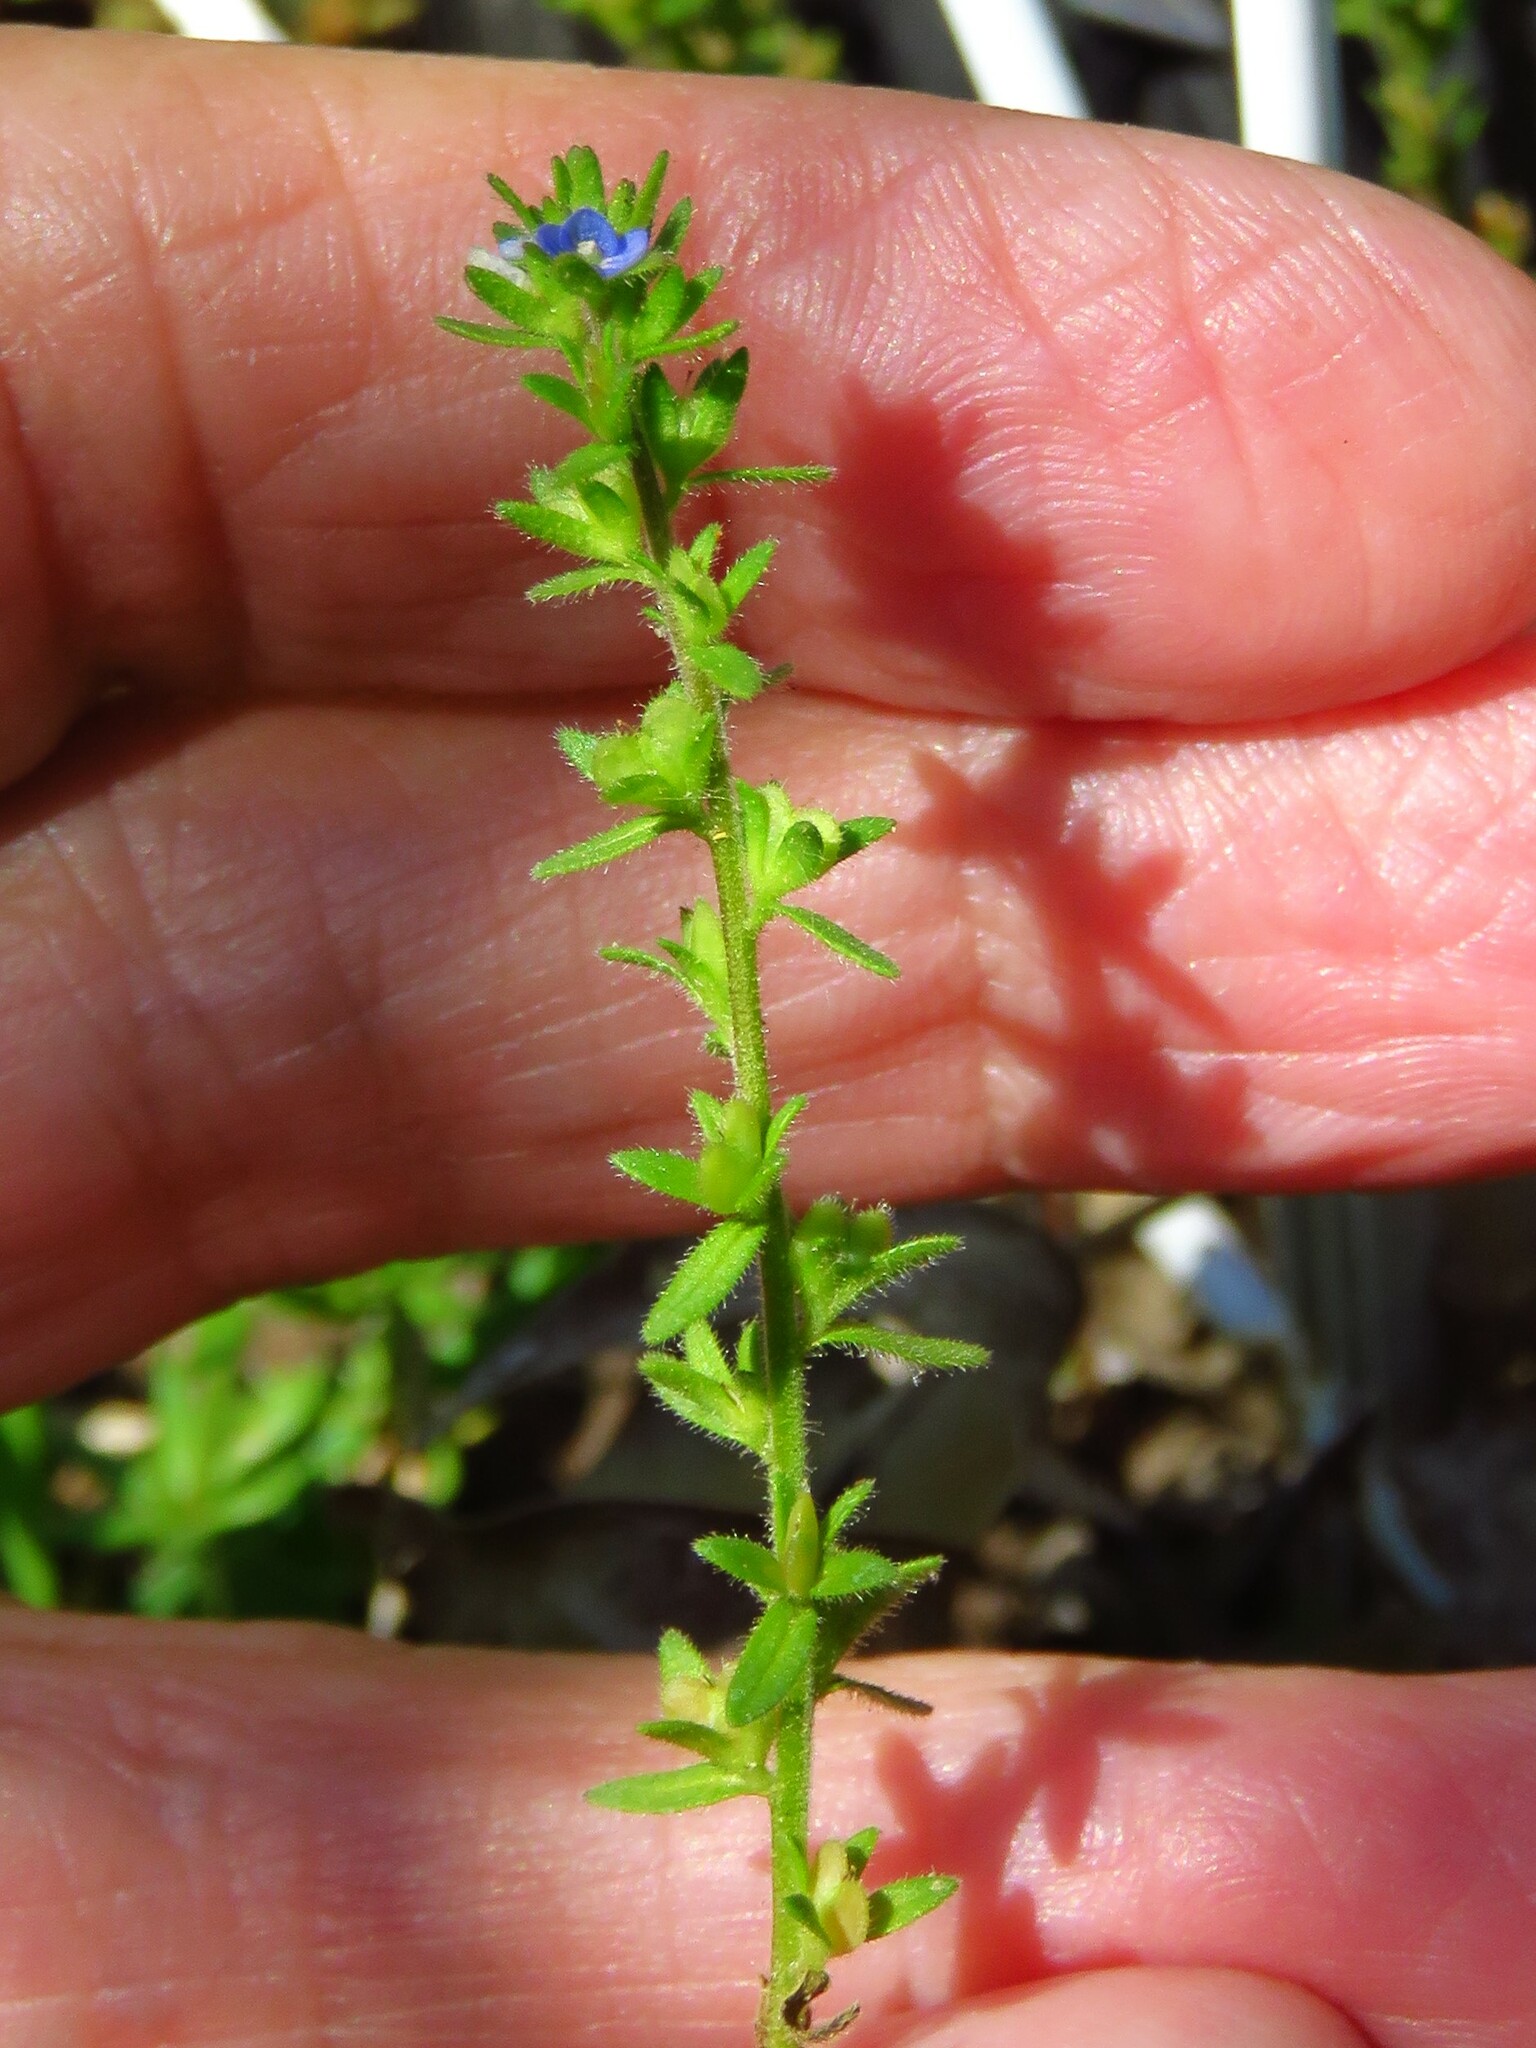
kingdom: Plantae
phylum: Tracheophyta
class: Magnoliopsida
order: Lamiales
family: Plantaginaceae
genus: Veronica
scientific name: Veronica arvensis
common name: Corn speedwell
